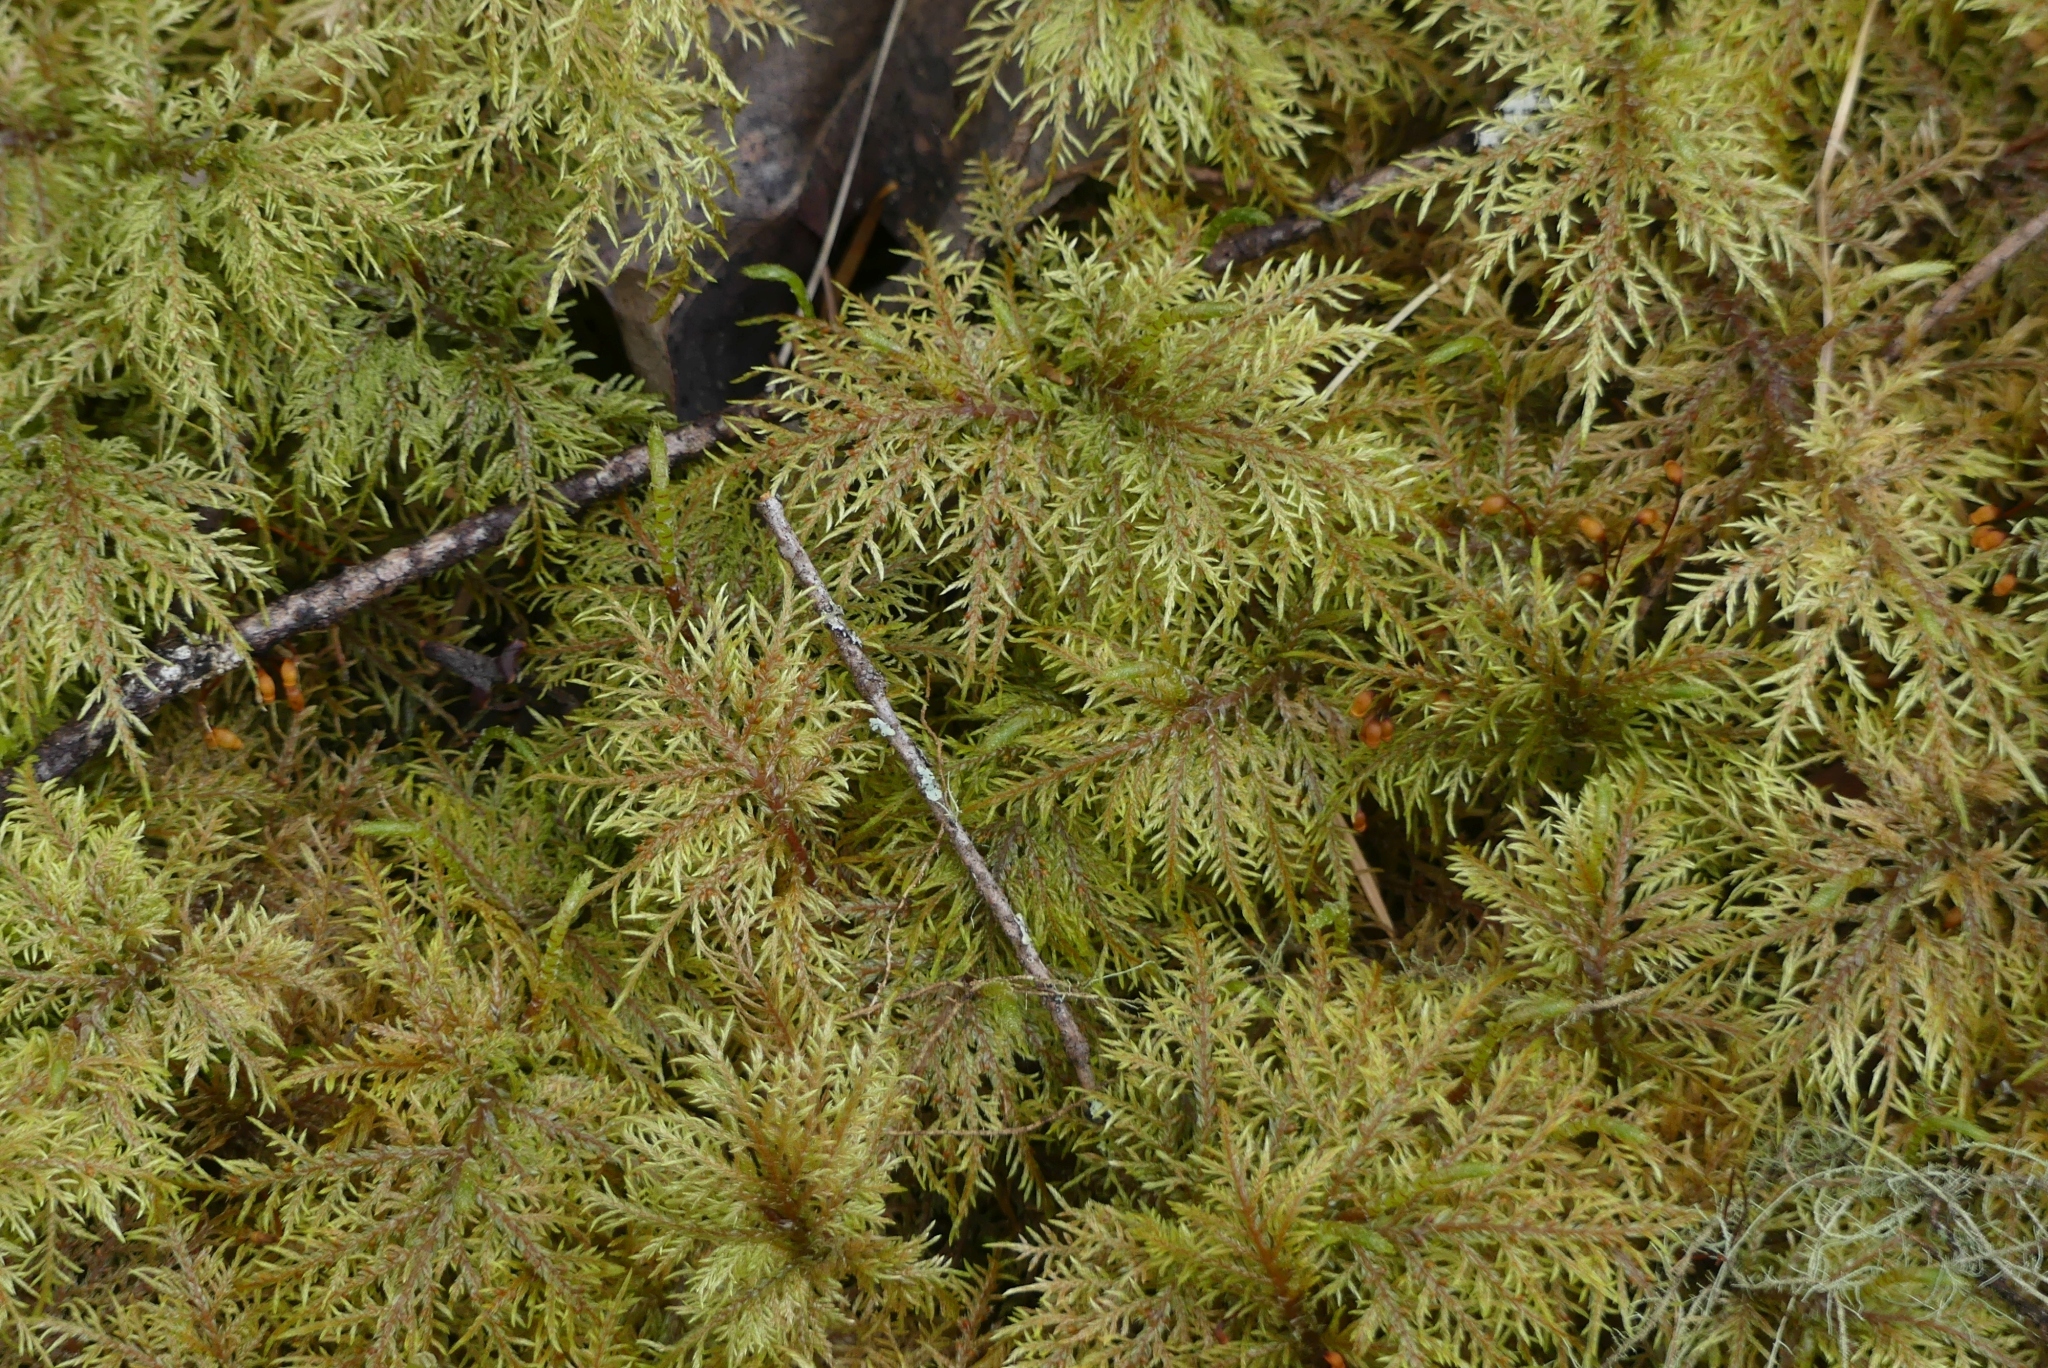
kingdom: Plantae
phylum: Bryophyta
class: Bryopsida
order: Hypnales
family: Hylocomiaceae
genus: Hylocomium
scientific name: Hylocomium splendens
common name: Stairstep moss
